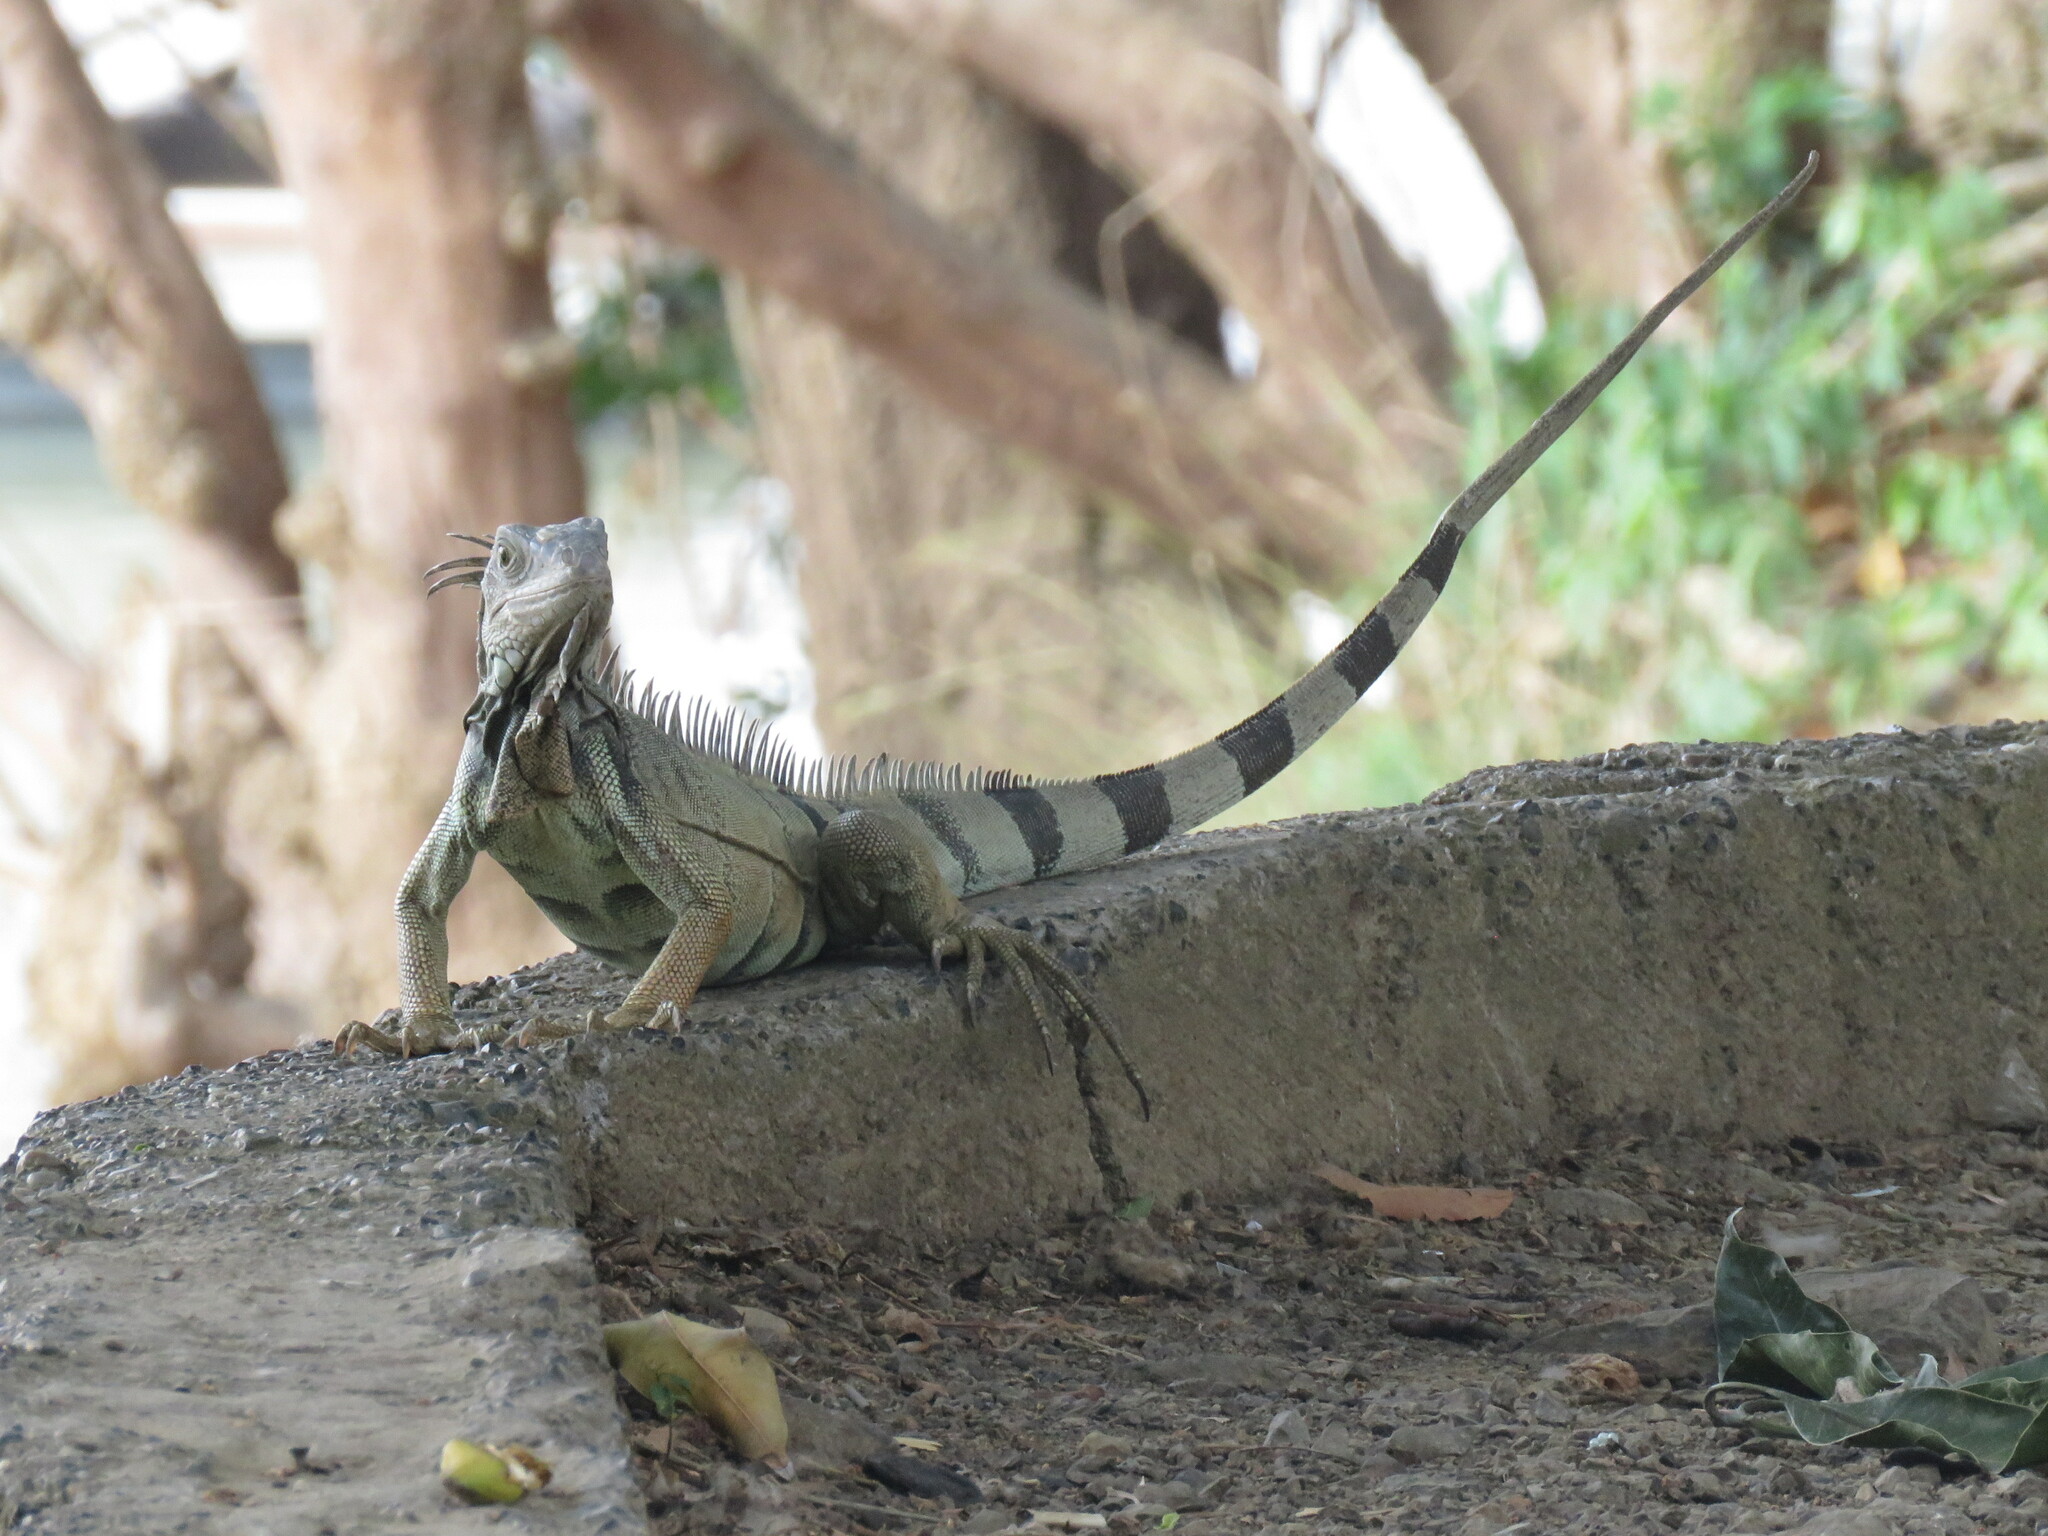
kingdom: Animalia
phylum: Chordata
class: Squamata
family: Iguanidae
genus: Iguana
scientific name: Iguana iguana
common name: Green iguana
